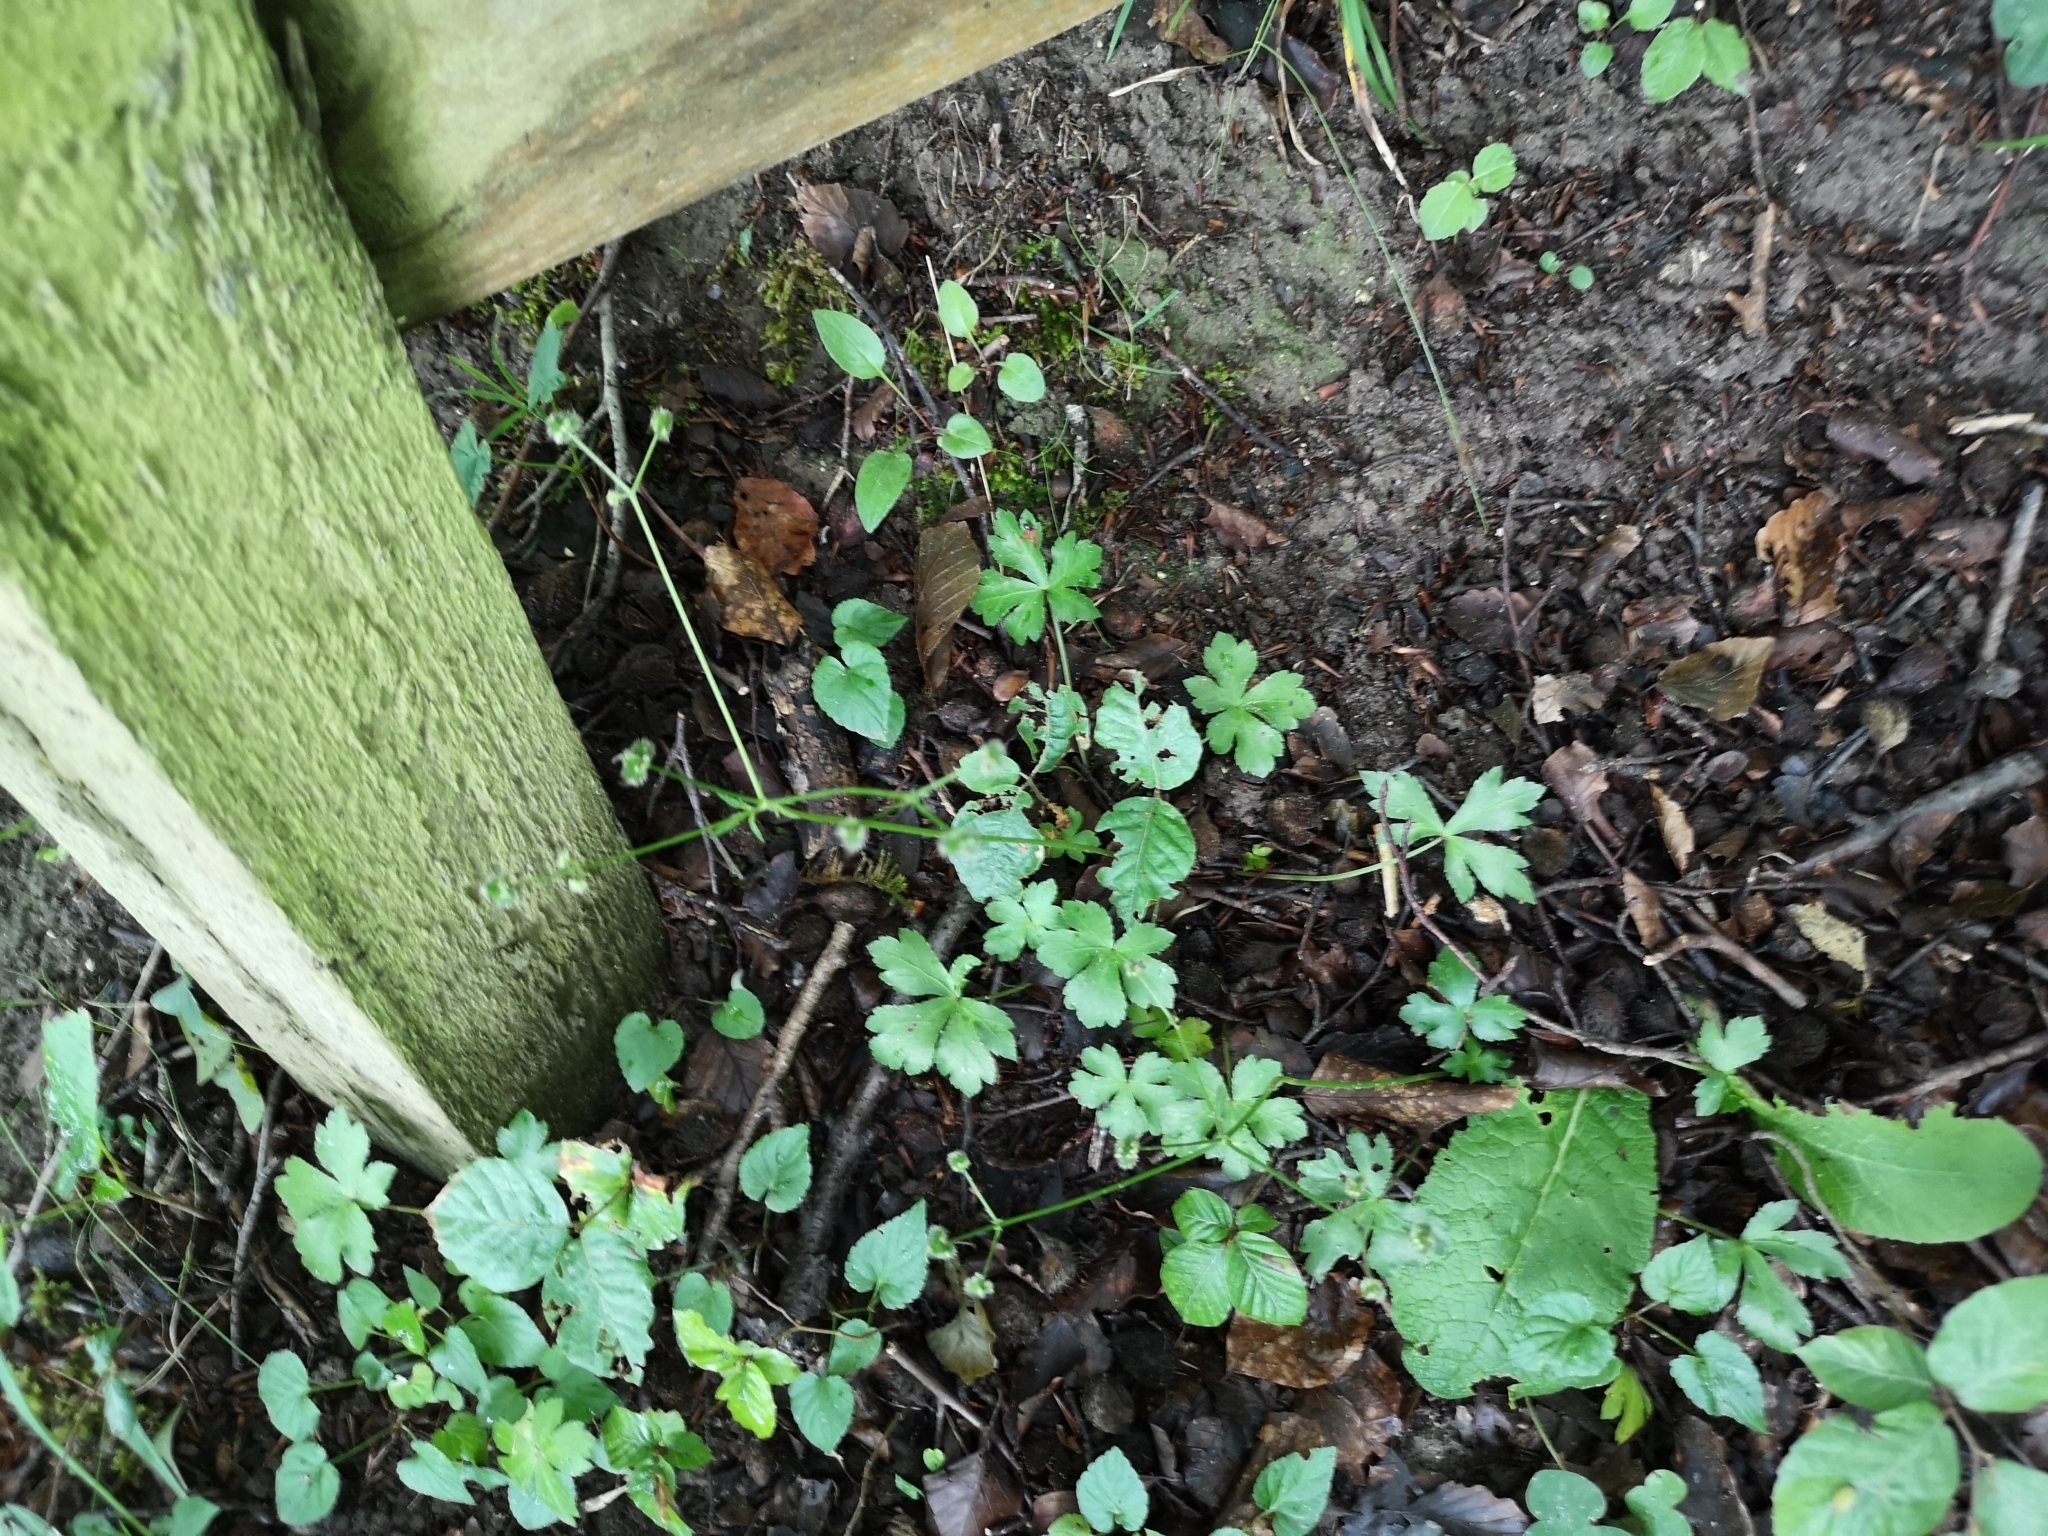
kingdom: Plantae
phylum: Tracheophyta
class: Magnoliopsida
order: Apiales
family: Apiaceae
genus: Sanicula
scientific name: Sanicula europaea
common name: Sanicle
